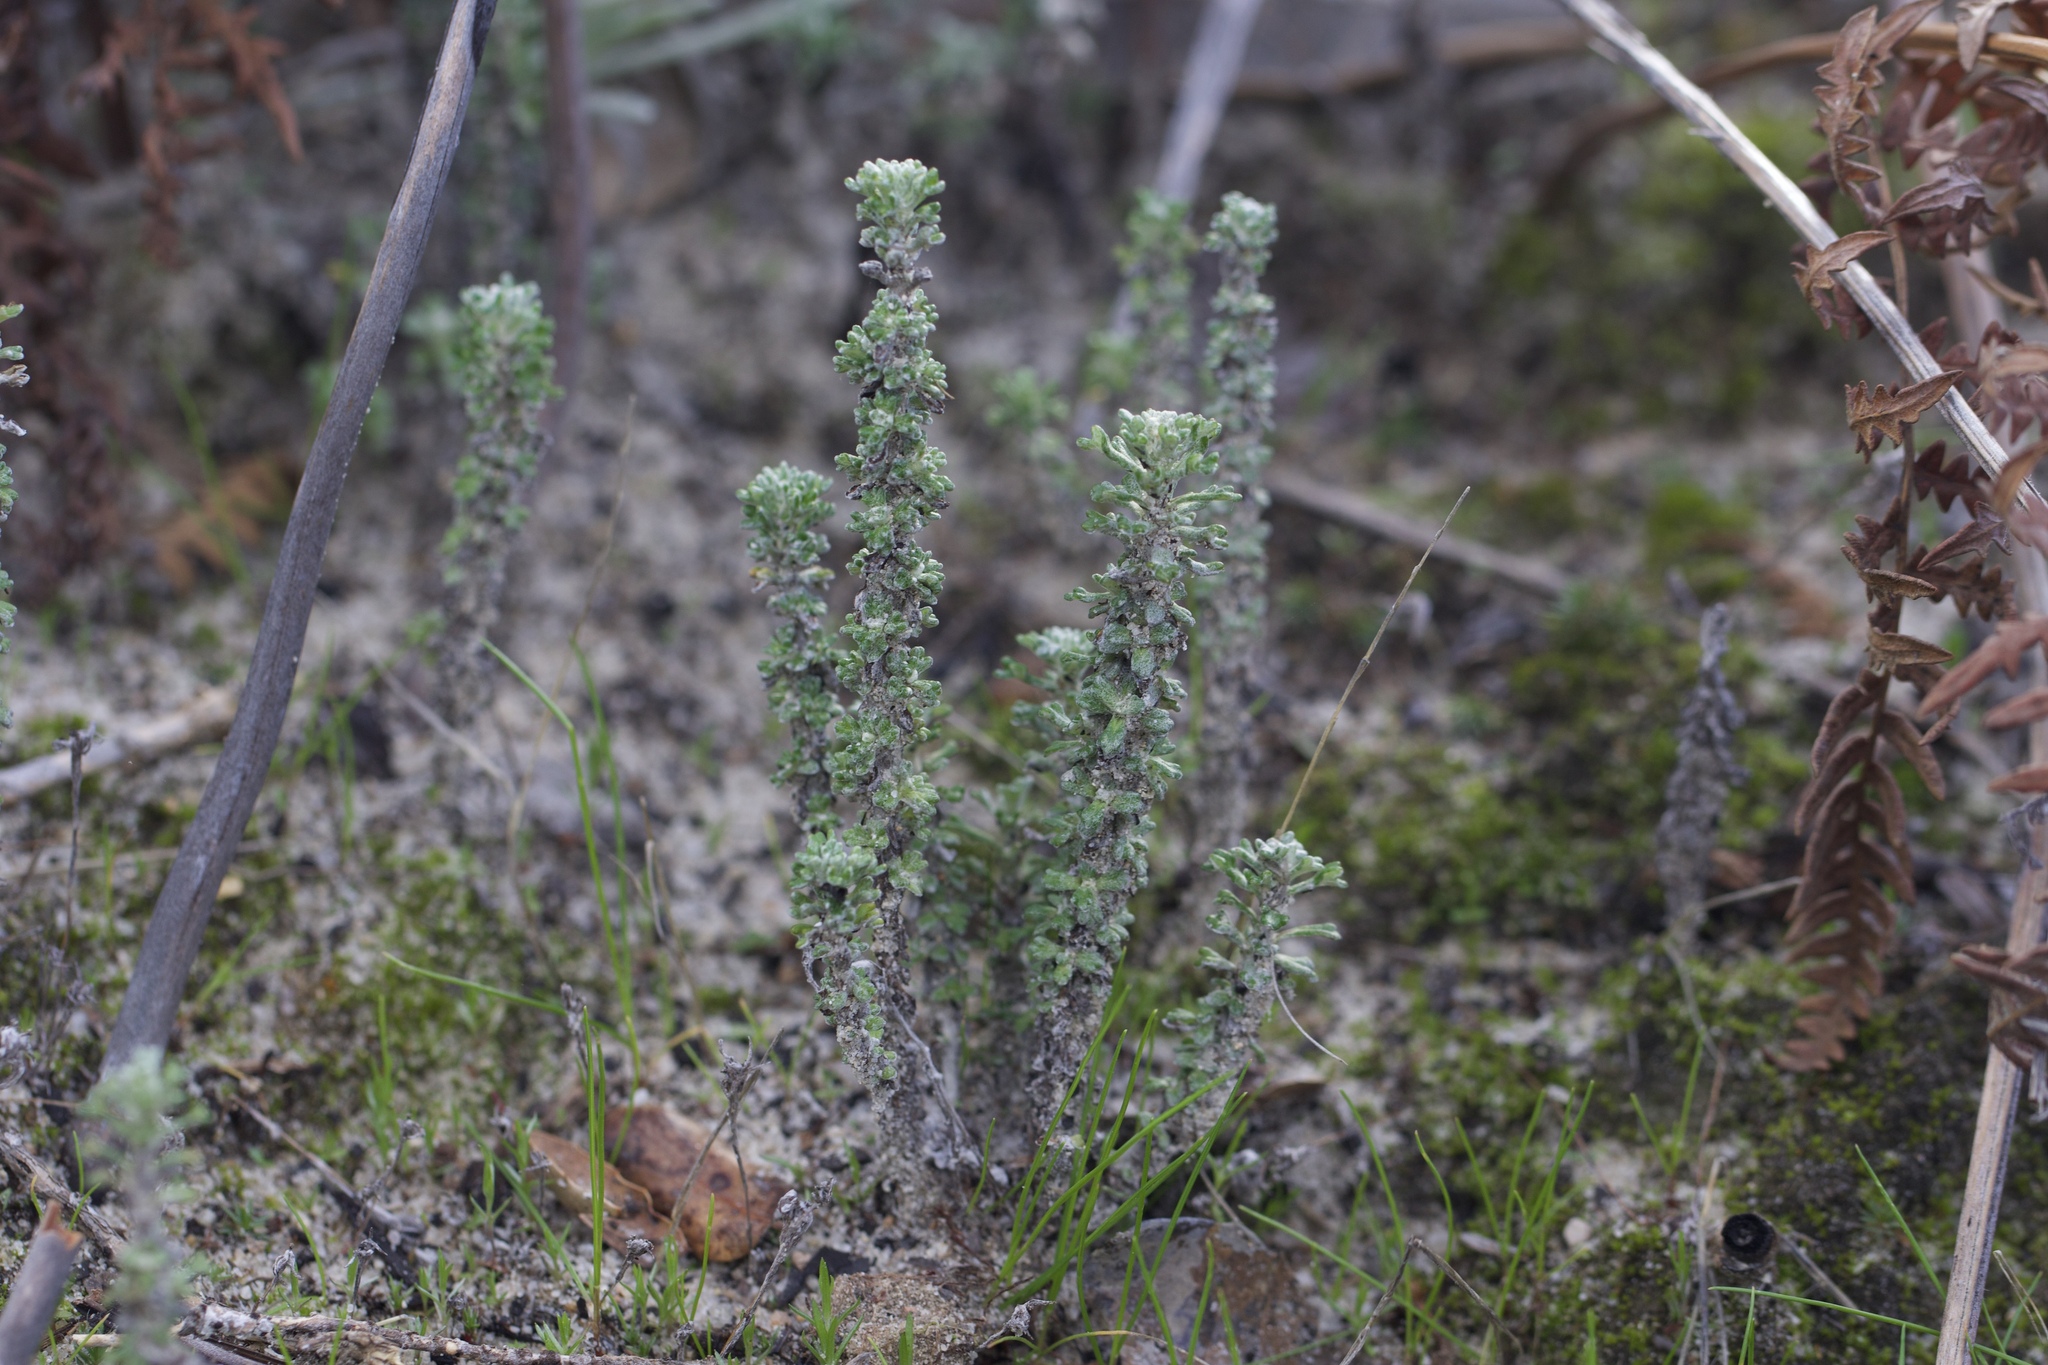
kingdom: Plantae
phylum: Tracheophyta
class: Magnoliopsida
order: Asterales
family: Asteraceae
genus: Eriophyllum
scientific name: Eriophyllum confertiflorum
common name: Golden-yarrow
